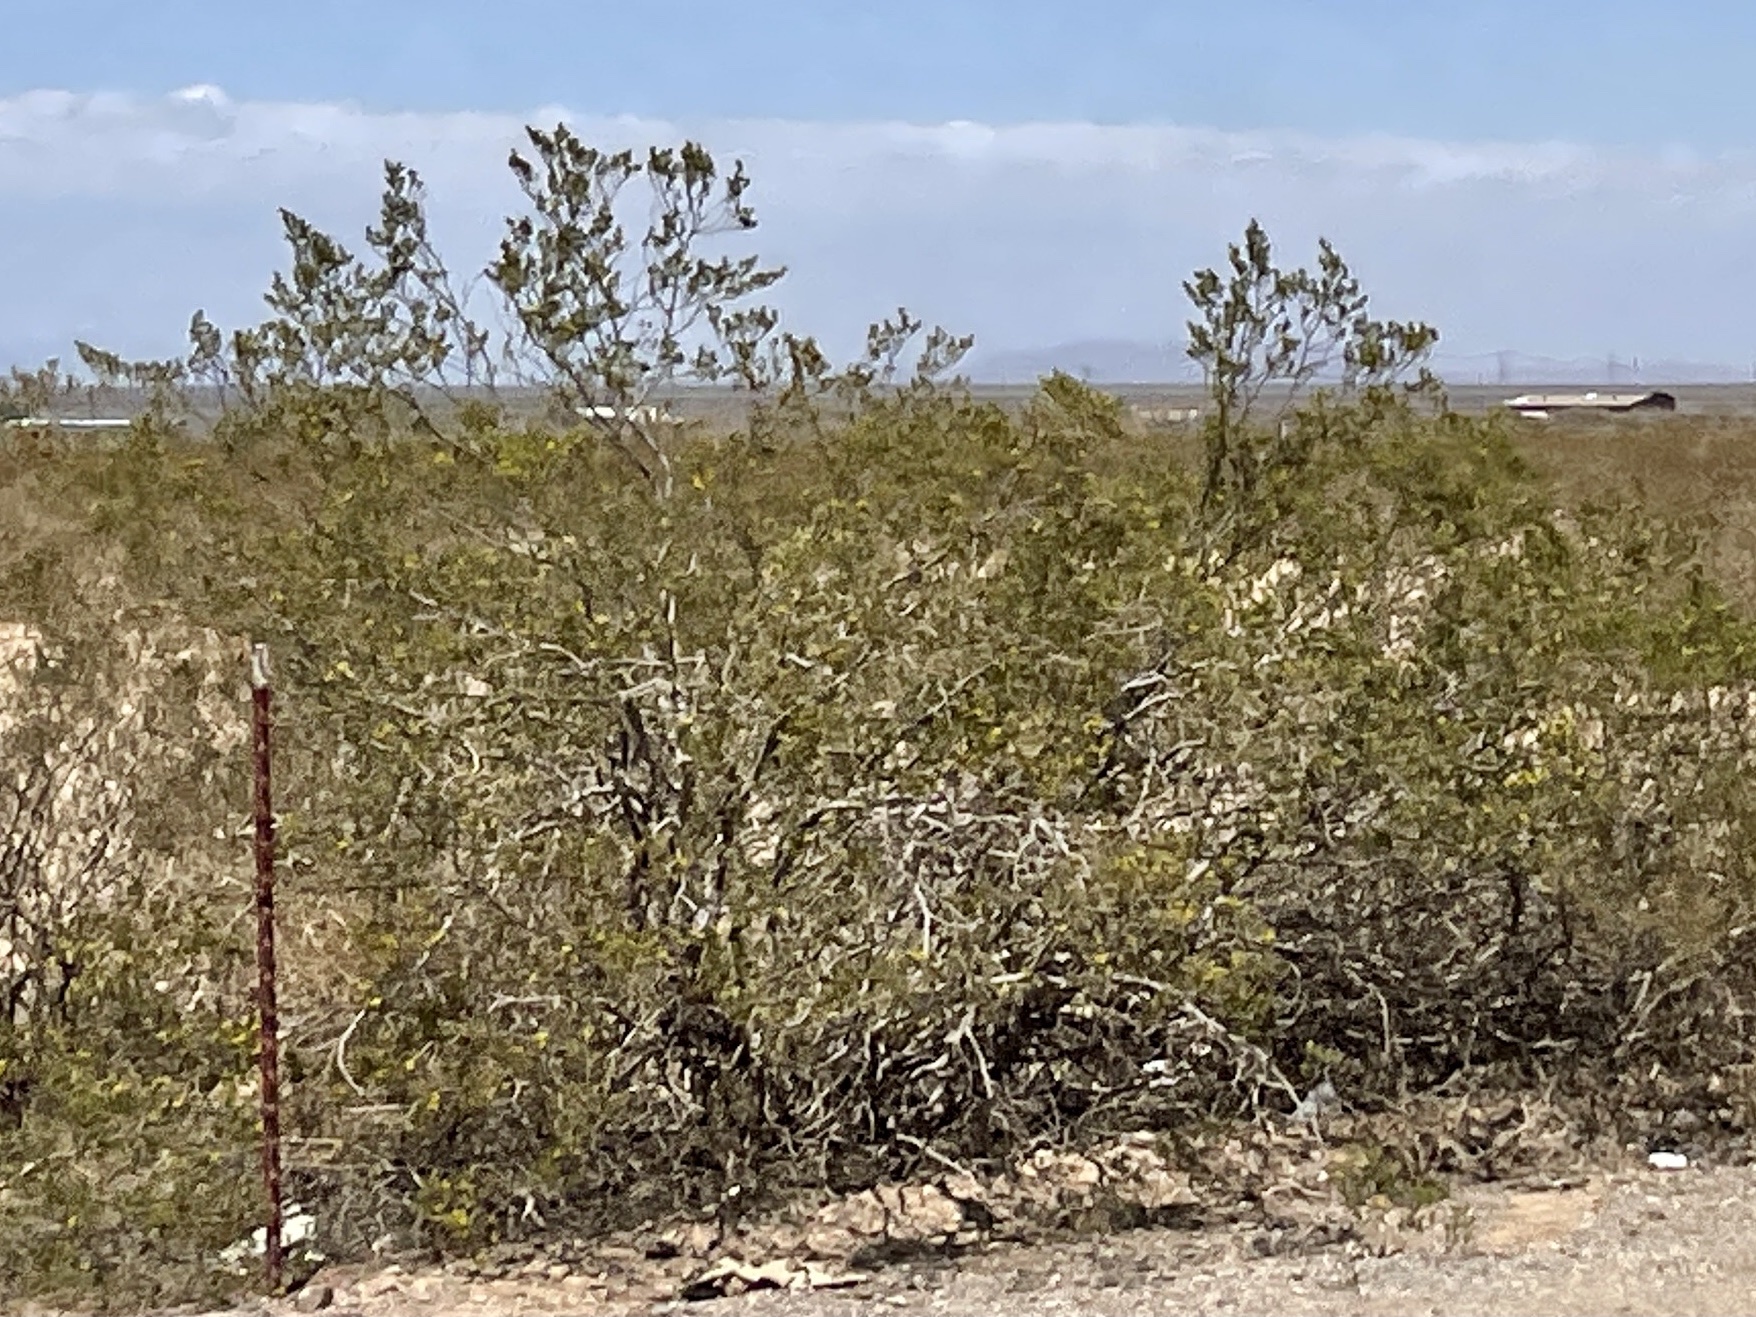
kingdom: Plantae
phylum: Tracheophyta
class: Magnoliopsida
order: Zygophyllales
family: Zygophyllaceae
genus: Larrea
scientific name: Larrea tridentata
